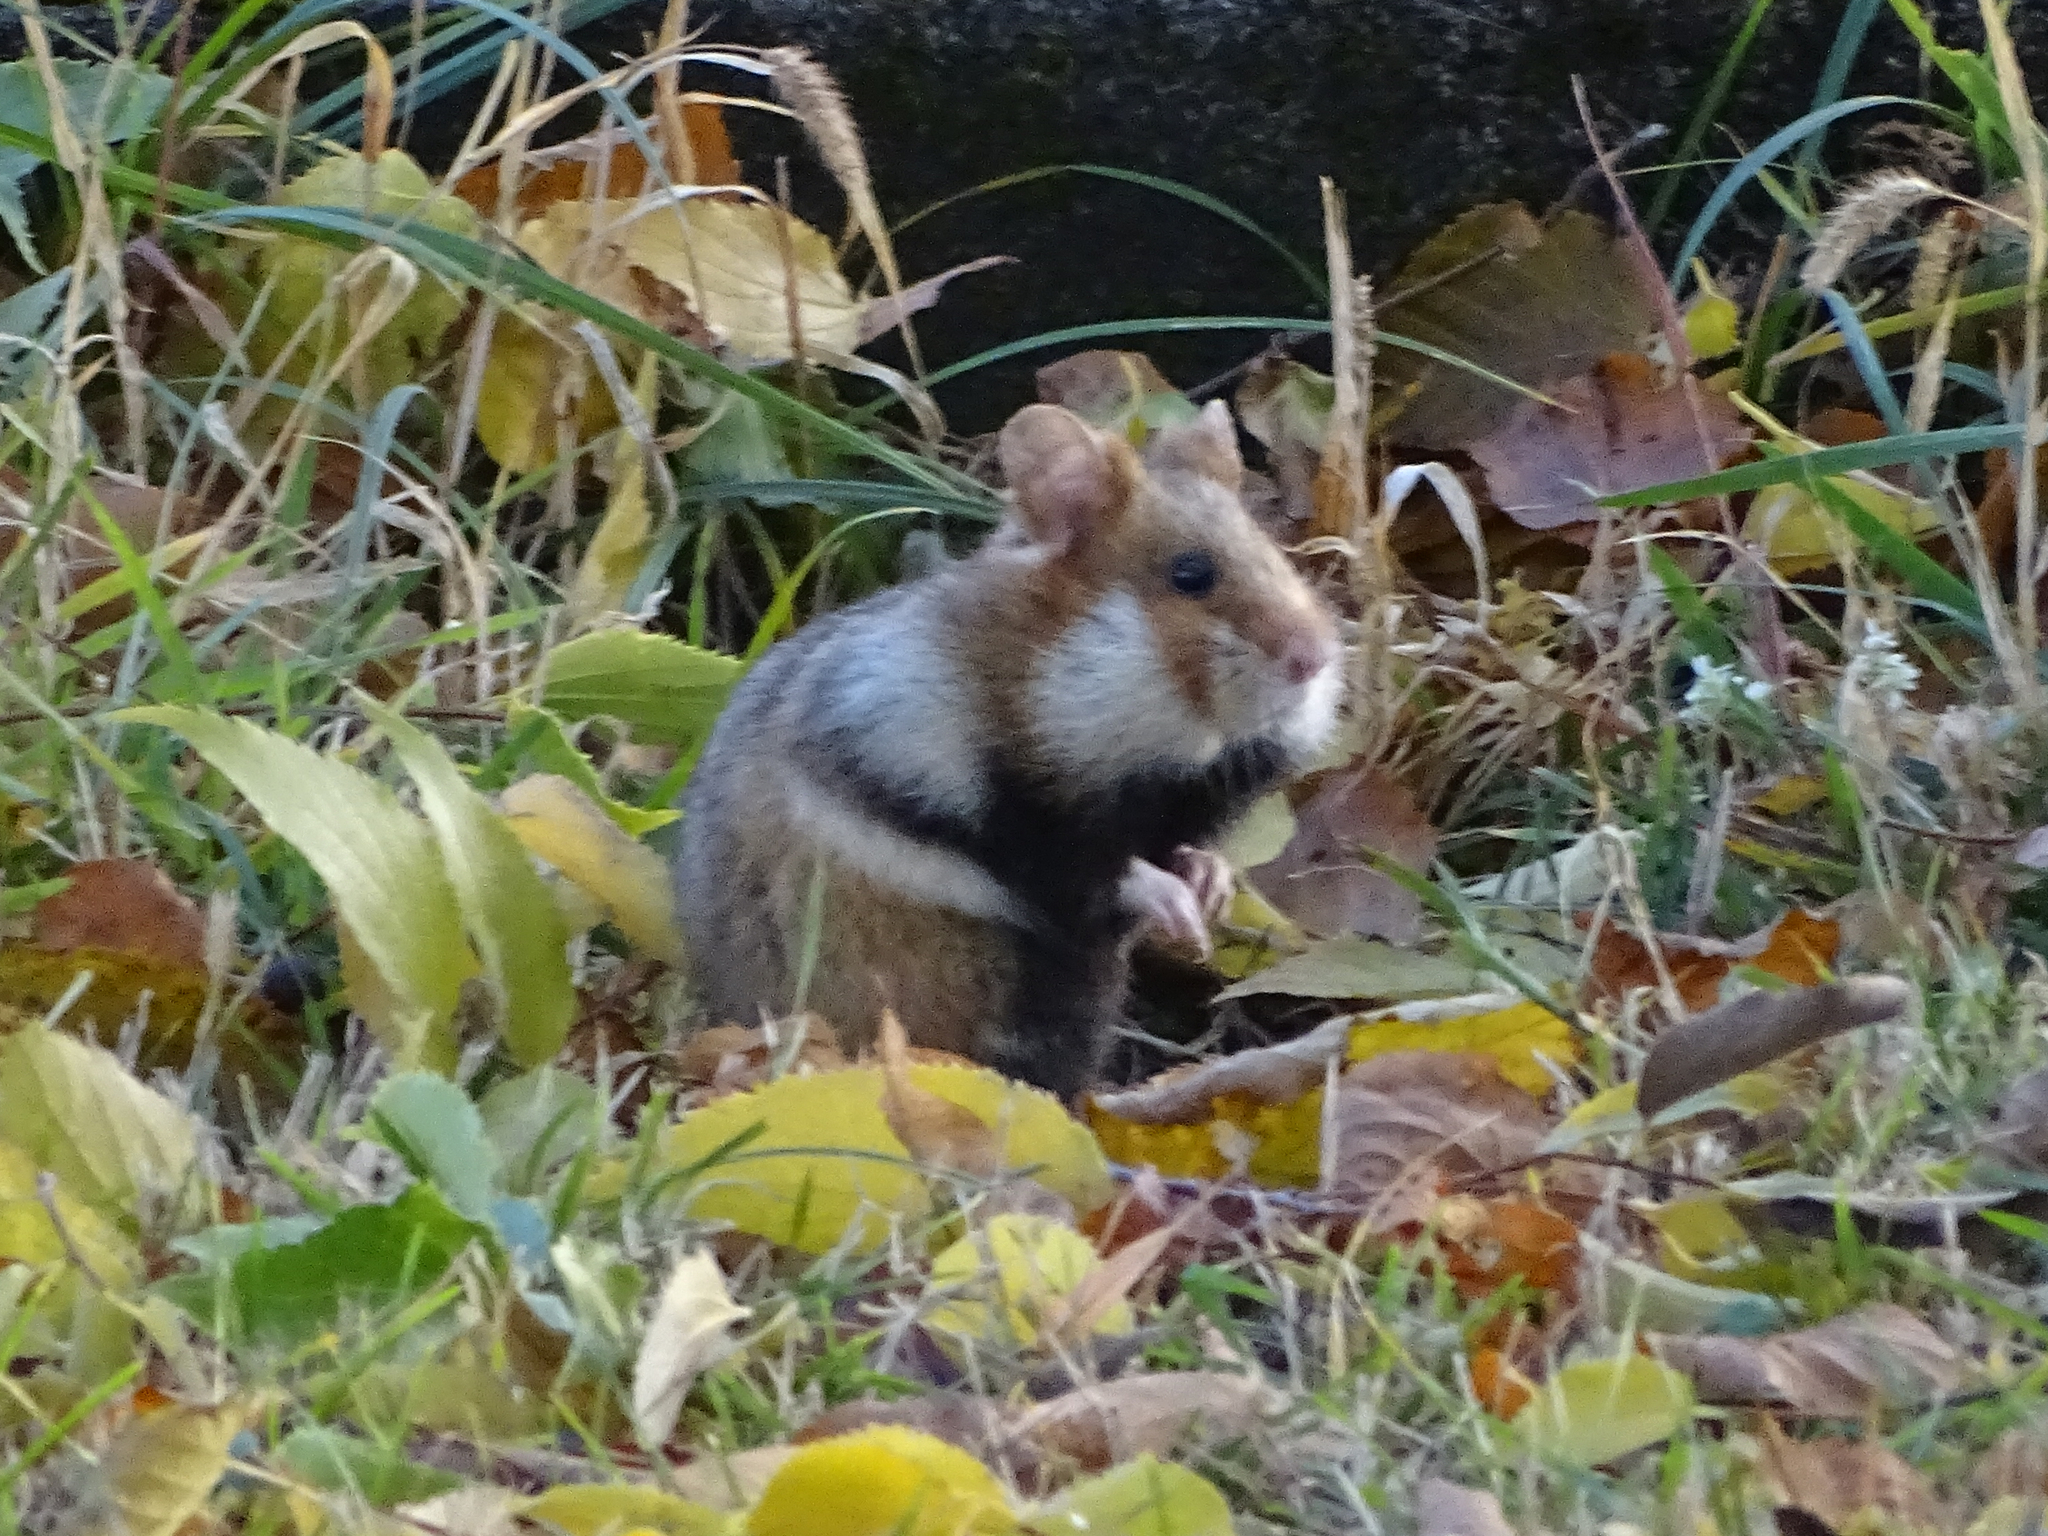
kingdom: Animalia
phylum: Chordata
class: Mammalia
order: Rodentia
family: Cricetidae
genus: Cricetus
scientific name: Cricetus cricetus
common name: Common hamster
